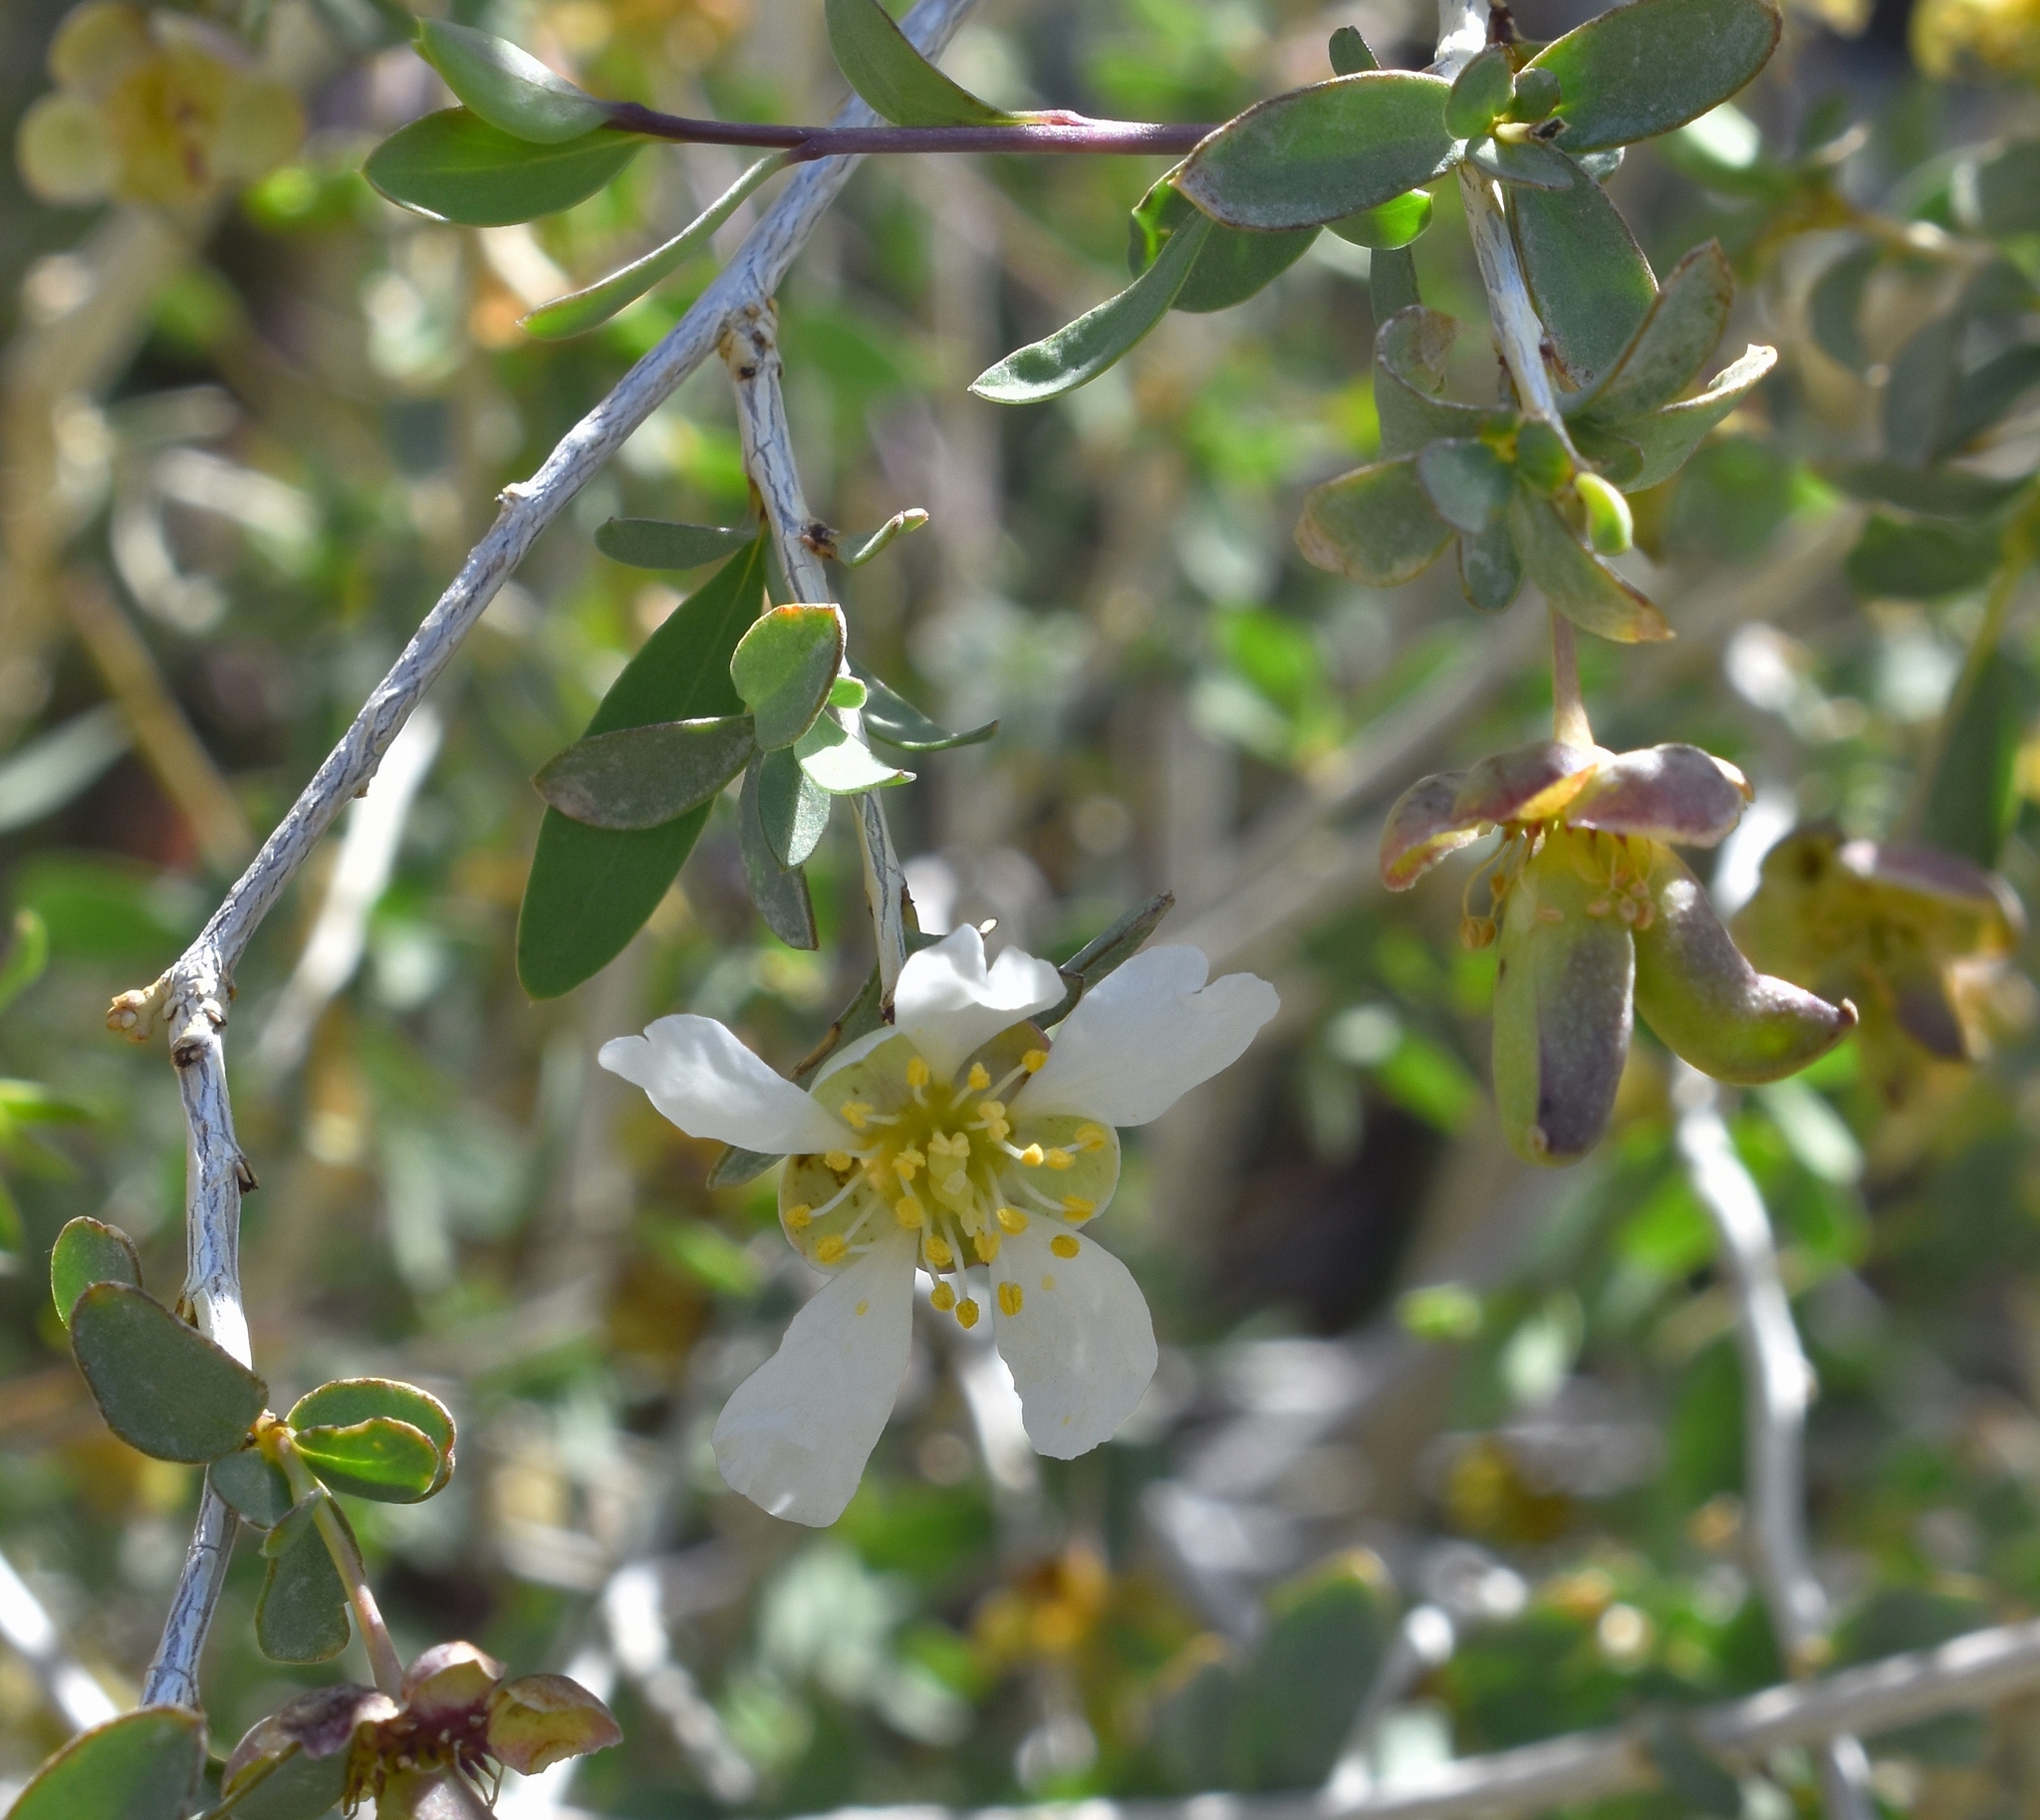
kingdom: Plantae
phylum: Tracheophyta
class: Magnoliopsida
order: Crossosomatales
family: Crossosomataceae
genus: Crossosoma
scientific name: Crossosoma bigelovii
